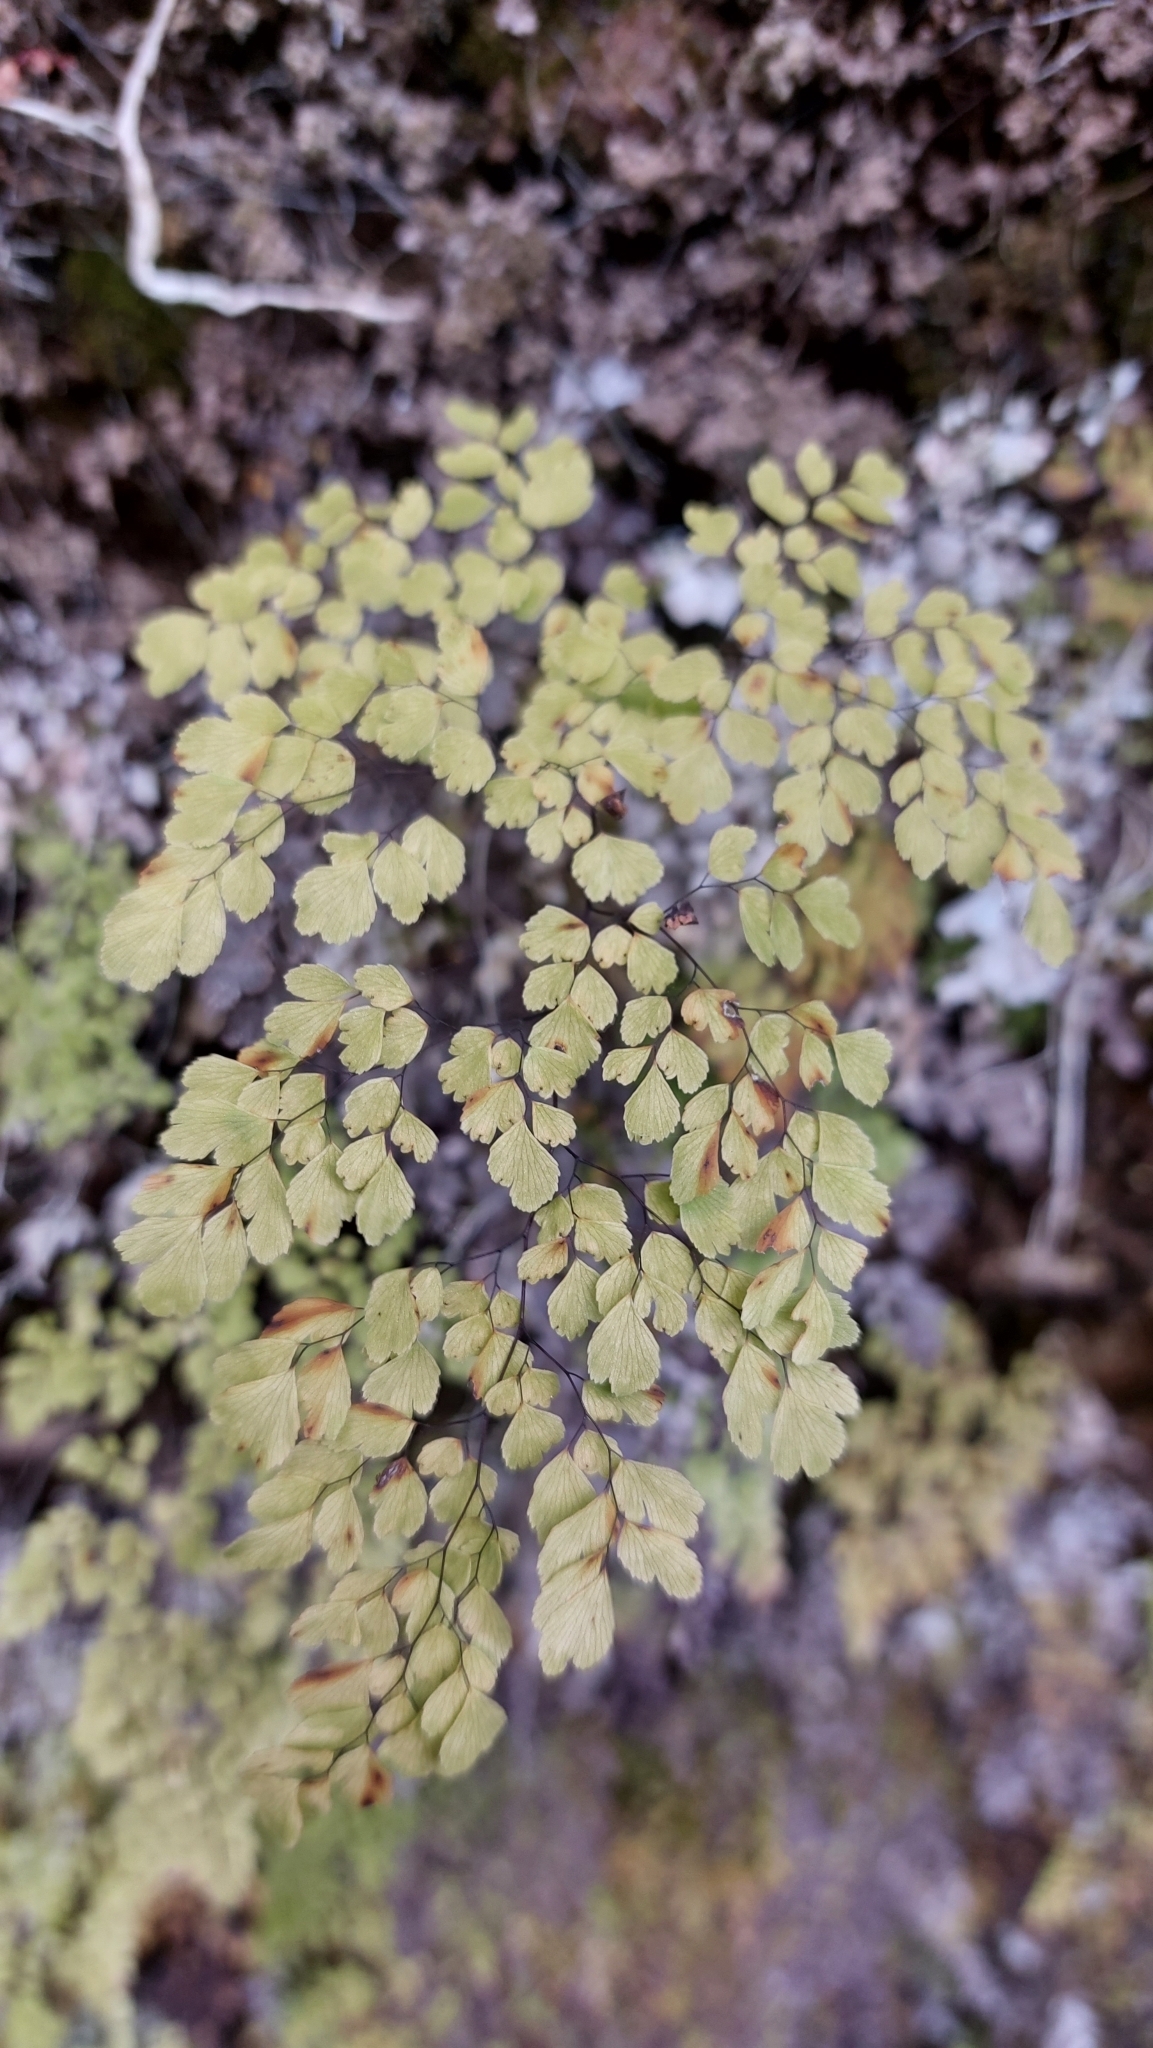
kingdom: Plantae
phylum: Tracheophyta
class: Polypodiopsida
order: Polypodiales
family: Pteridaceae
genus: Adiantum
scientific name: Adiantum raddianum
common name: Delta maidenhair fern
